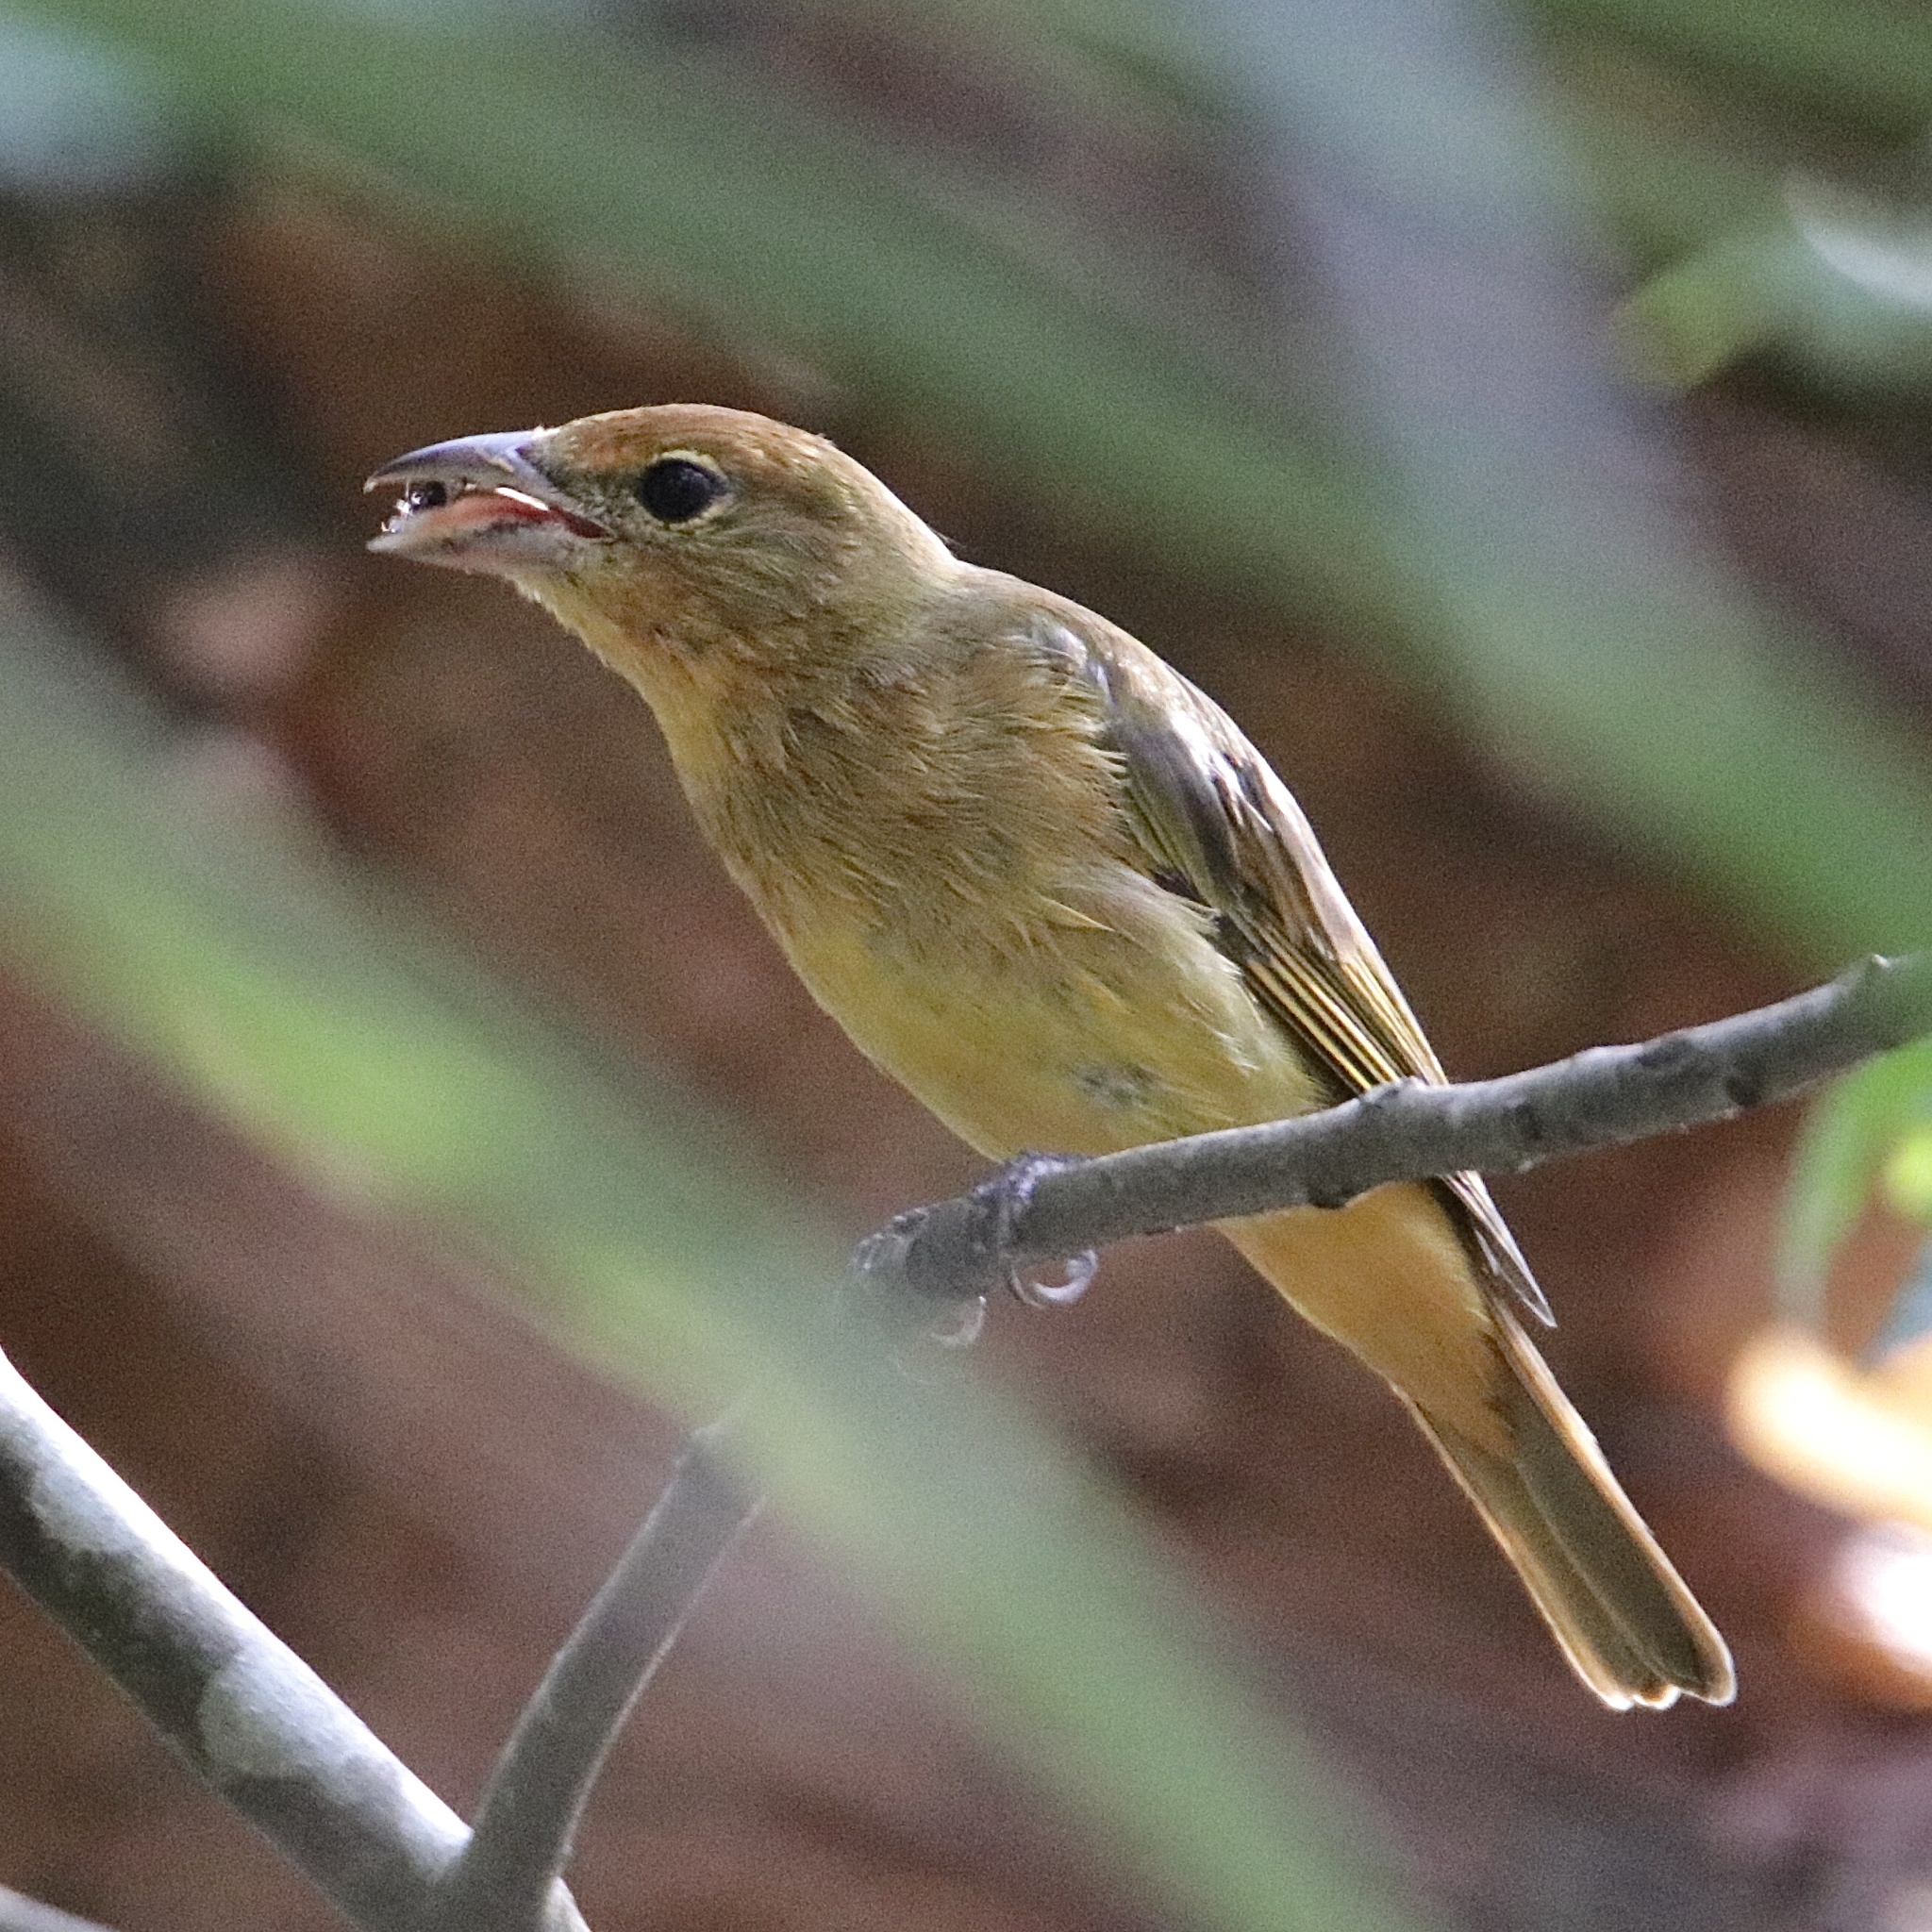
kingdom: Animalia
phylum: Chordata
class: Aves
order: Passeriformes
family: Cardinalidae
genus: Piranga
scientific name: Piranga rubra
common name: Summer tanager
